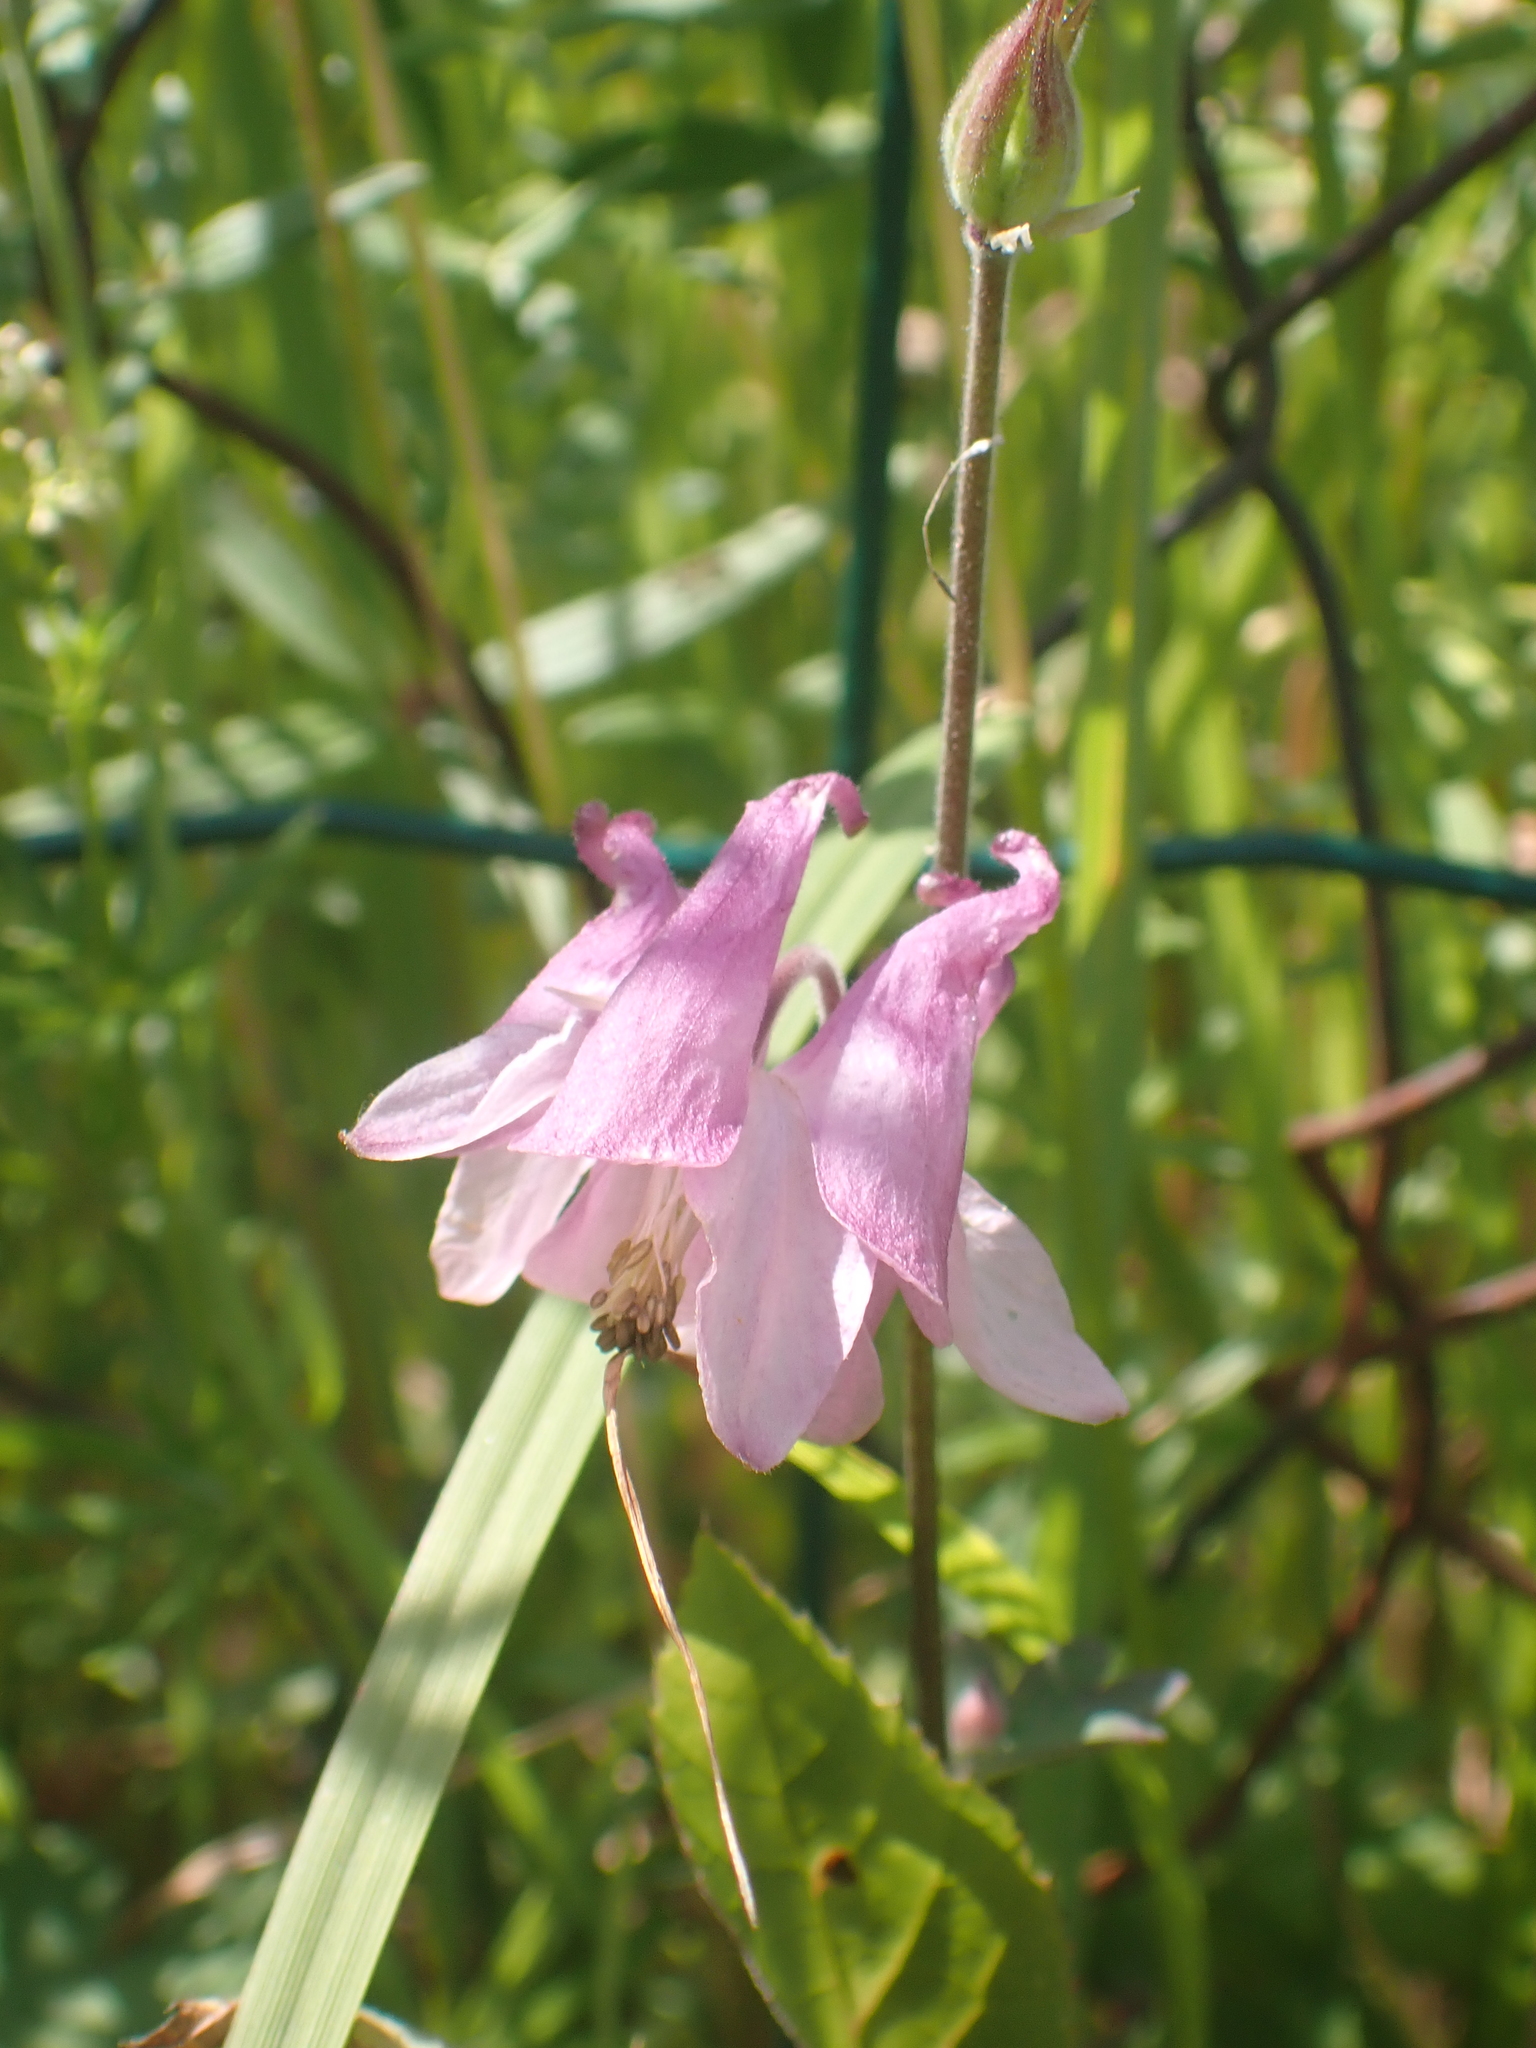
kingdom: Plantae
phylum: Tracheophyta
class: Magnoliopsida
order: Ranunculales
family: Ranunculaceae
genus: Aquilegia
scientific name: Aquilegia vulgaris
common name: Columbine
